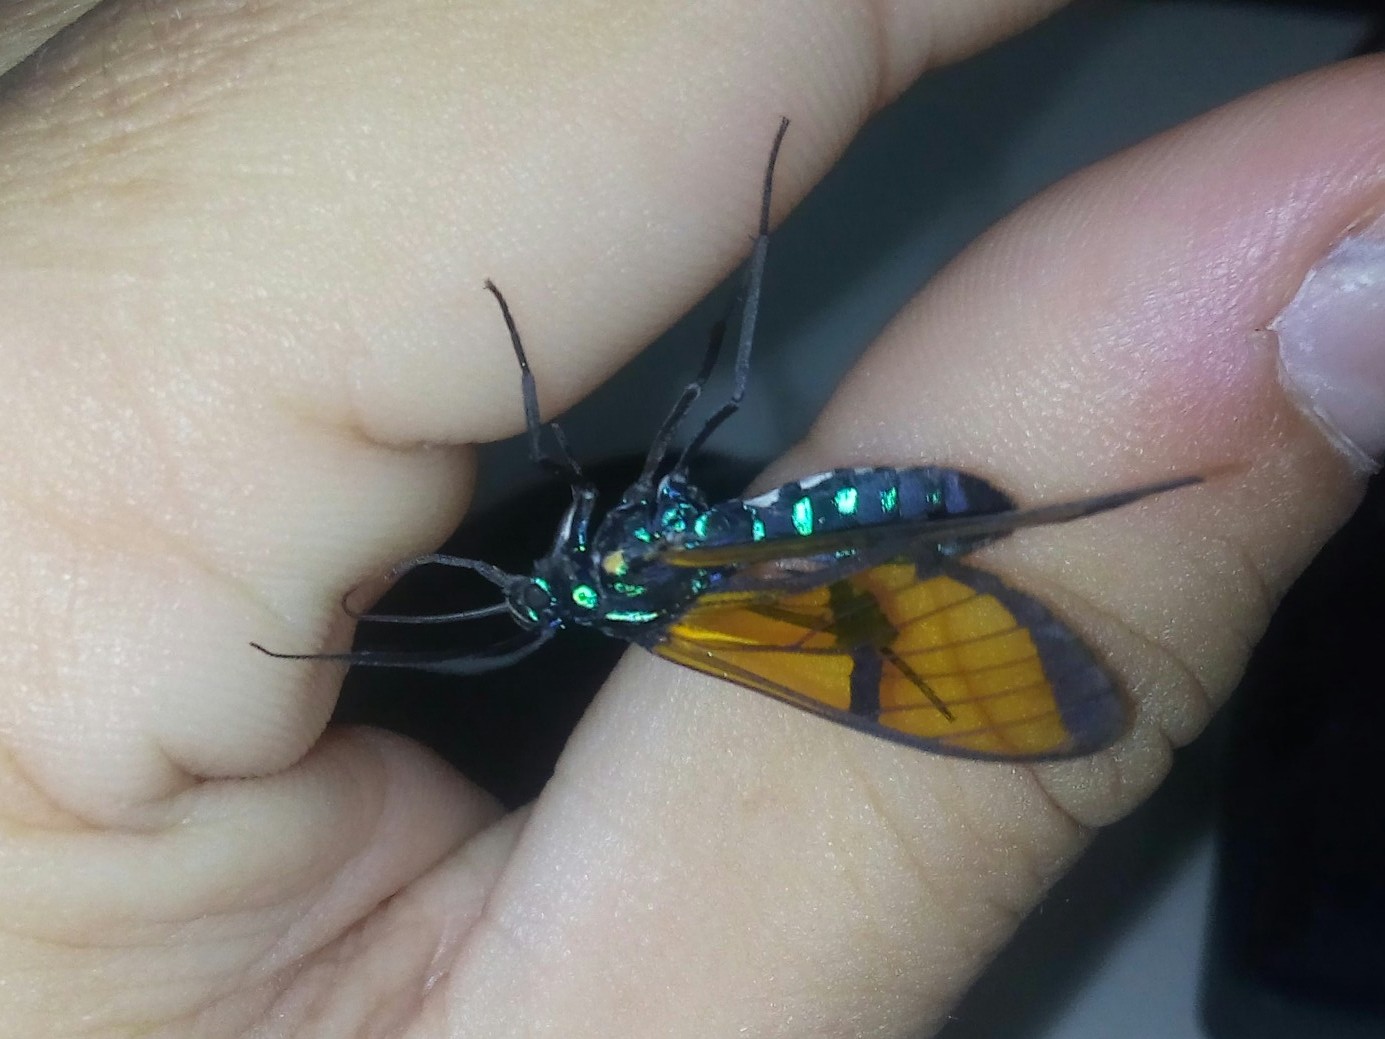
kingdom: Animalia
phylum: Arthropoda
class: Insecta
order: Lepidoptera
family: Erebidae
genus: Trichura
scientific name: Trichura cerberus
